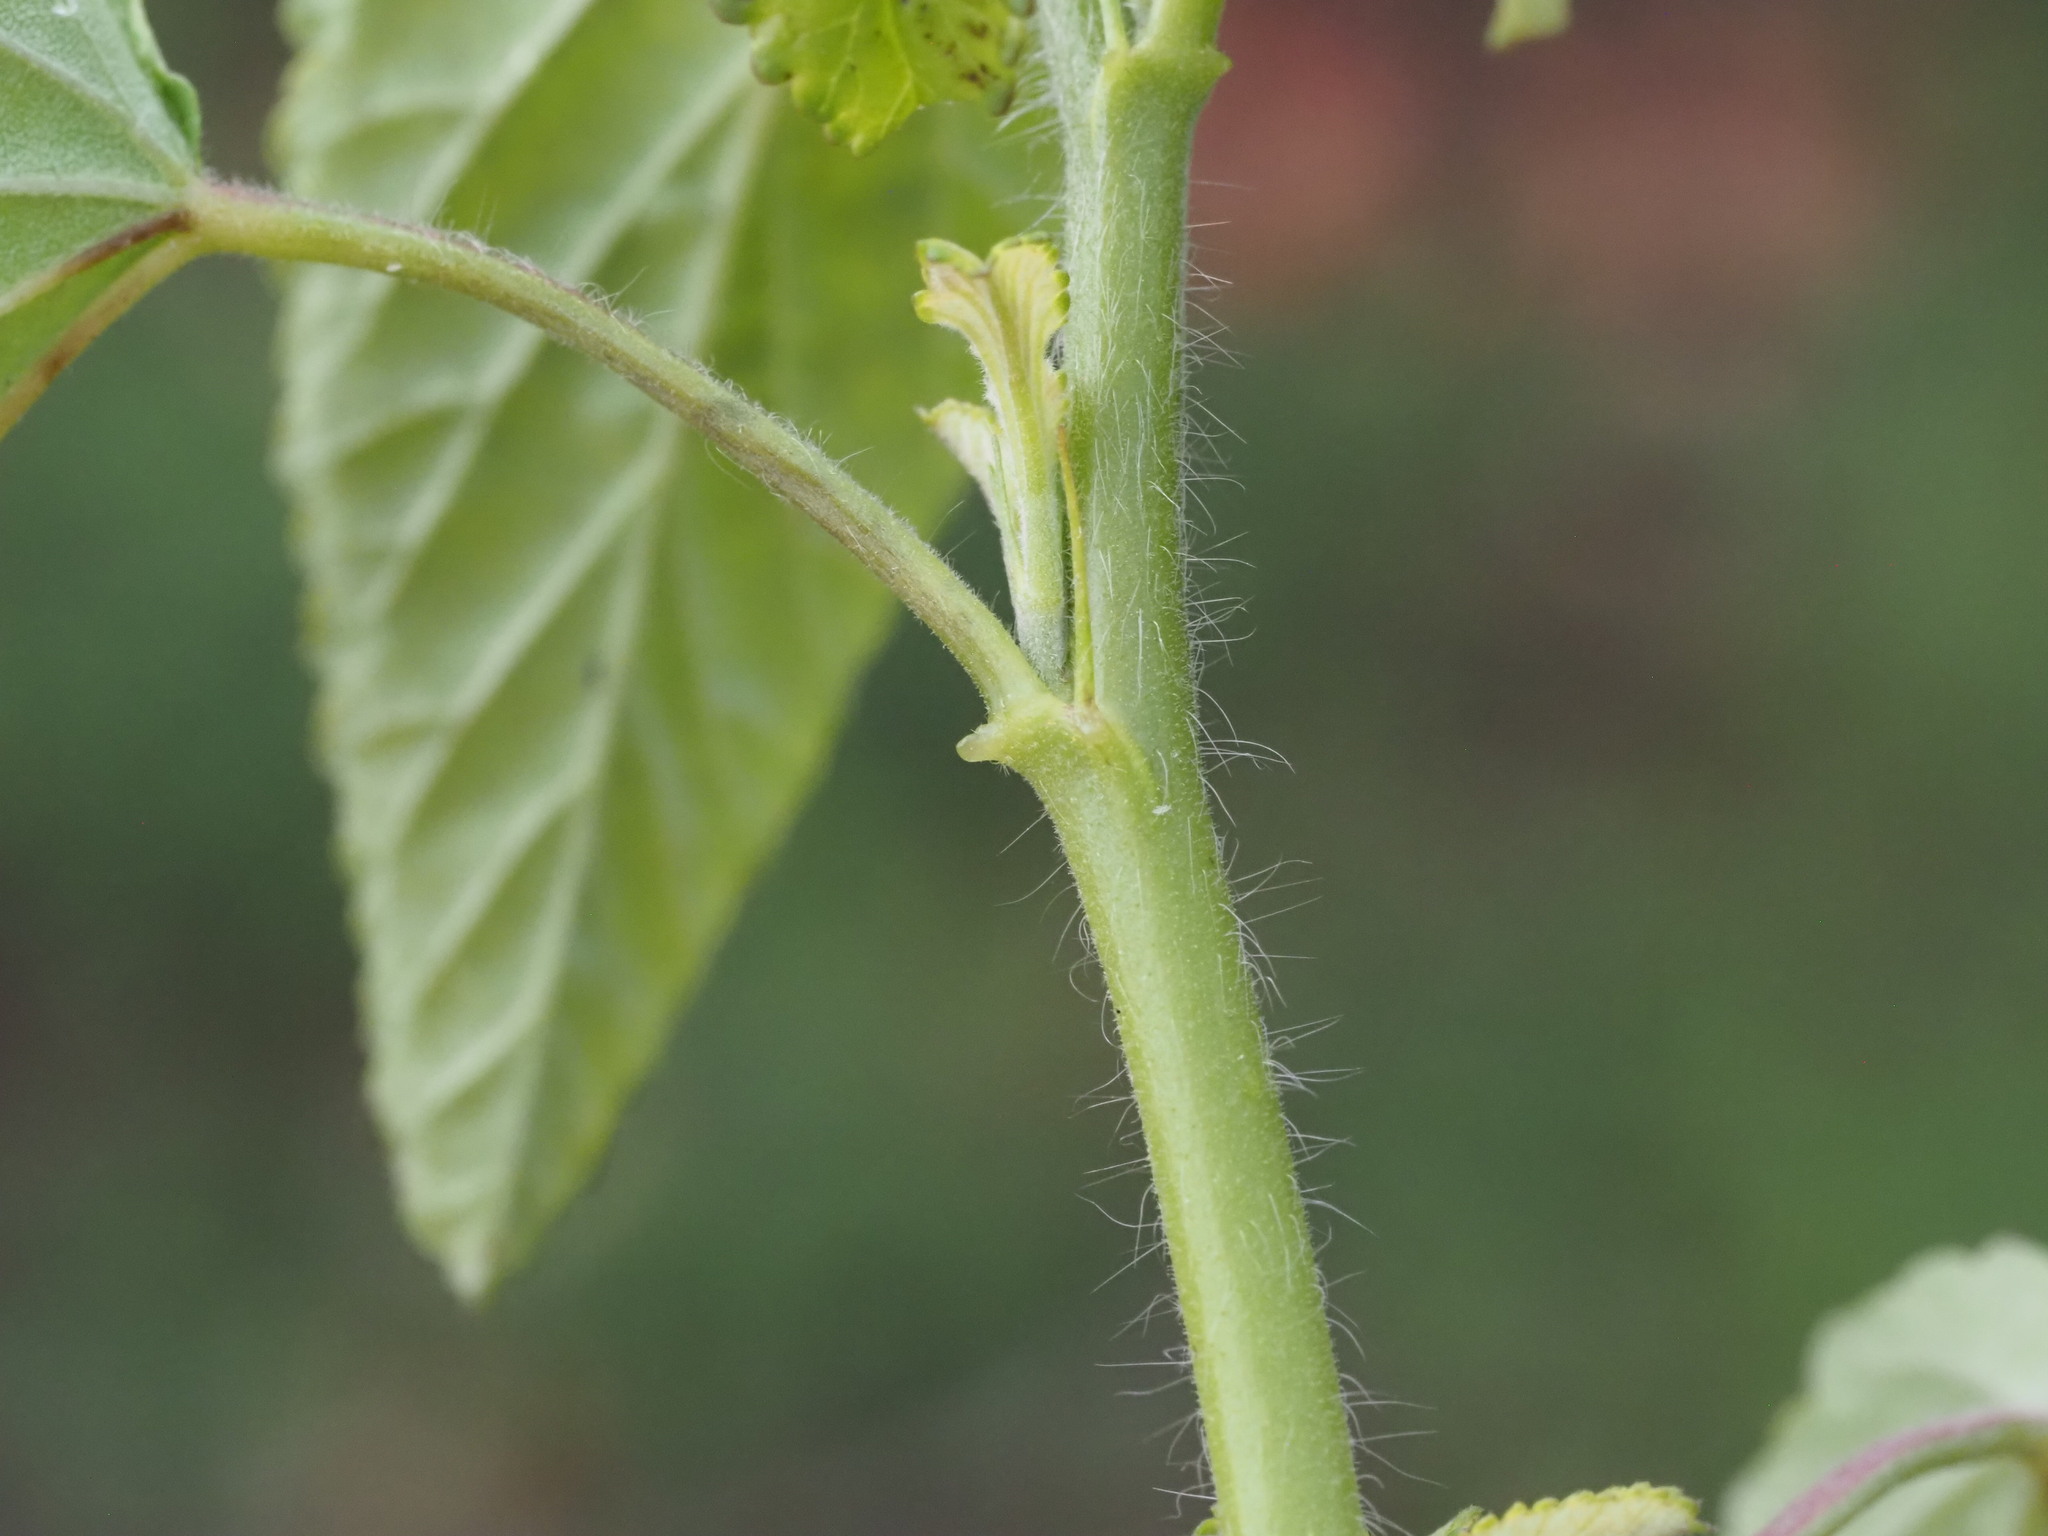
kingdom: Plantae
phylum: Tracheophyta
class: Magnoliopsida
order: Malvales
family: Malvaceae
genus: Sida
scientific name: Sida spinosa
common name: Prickly fanpetals
